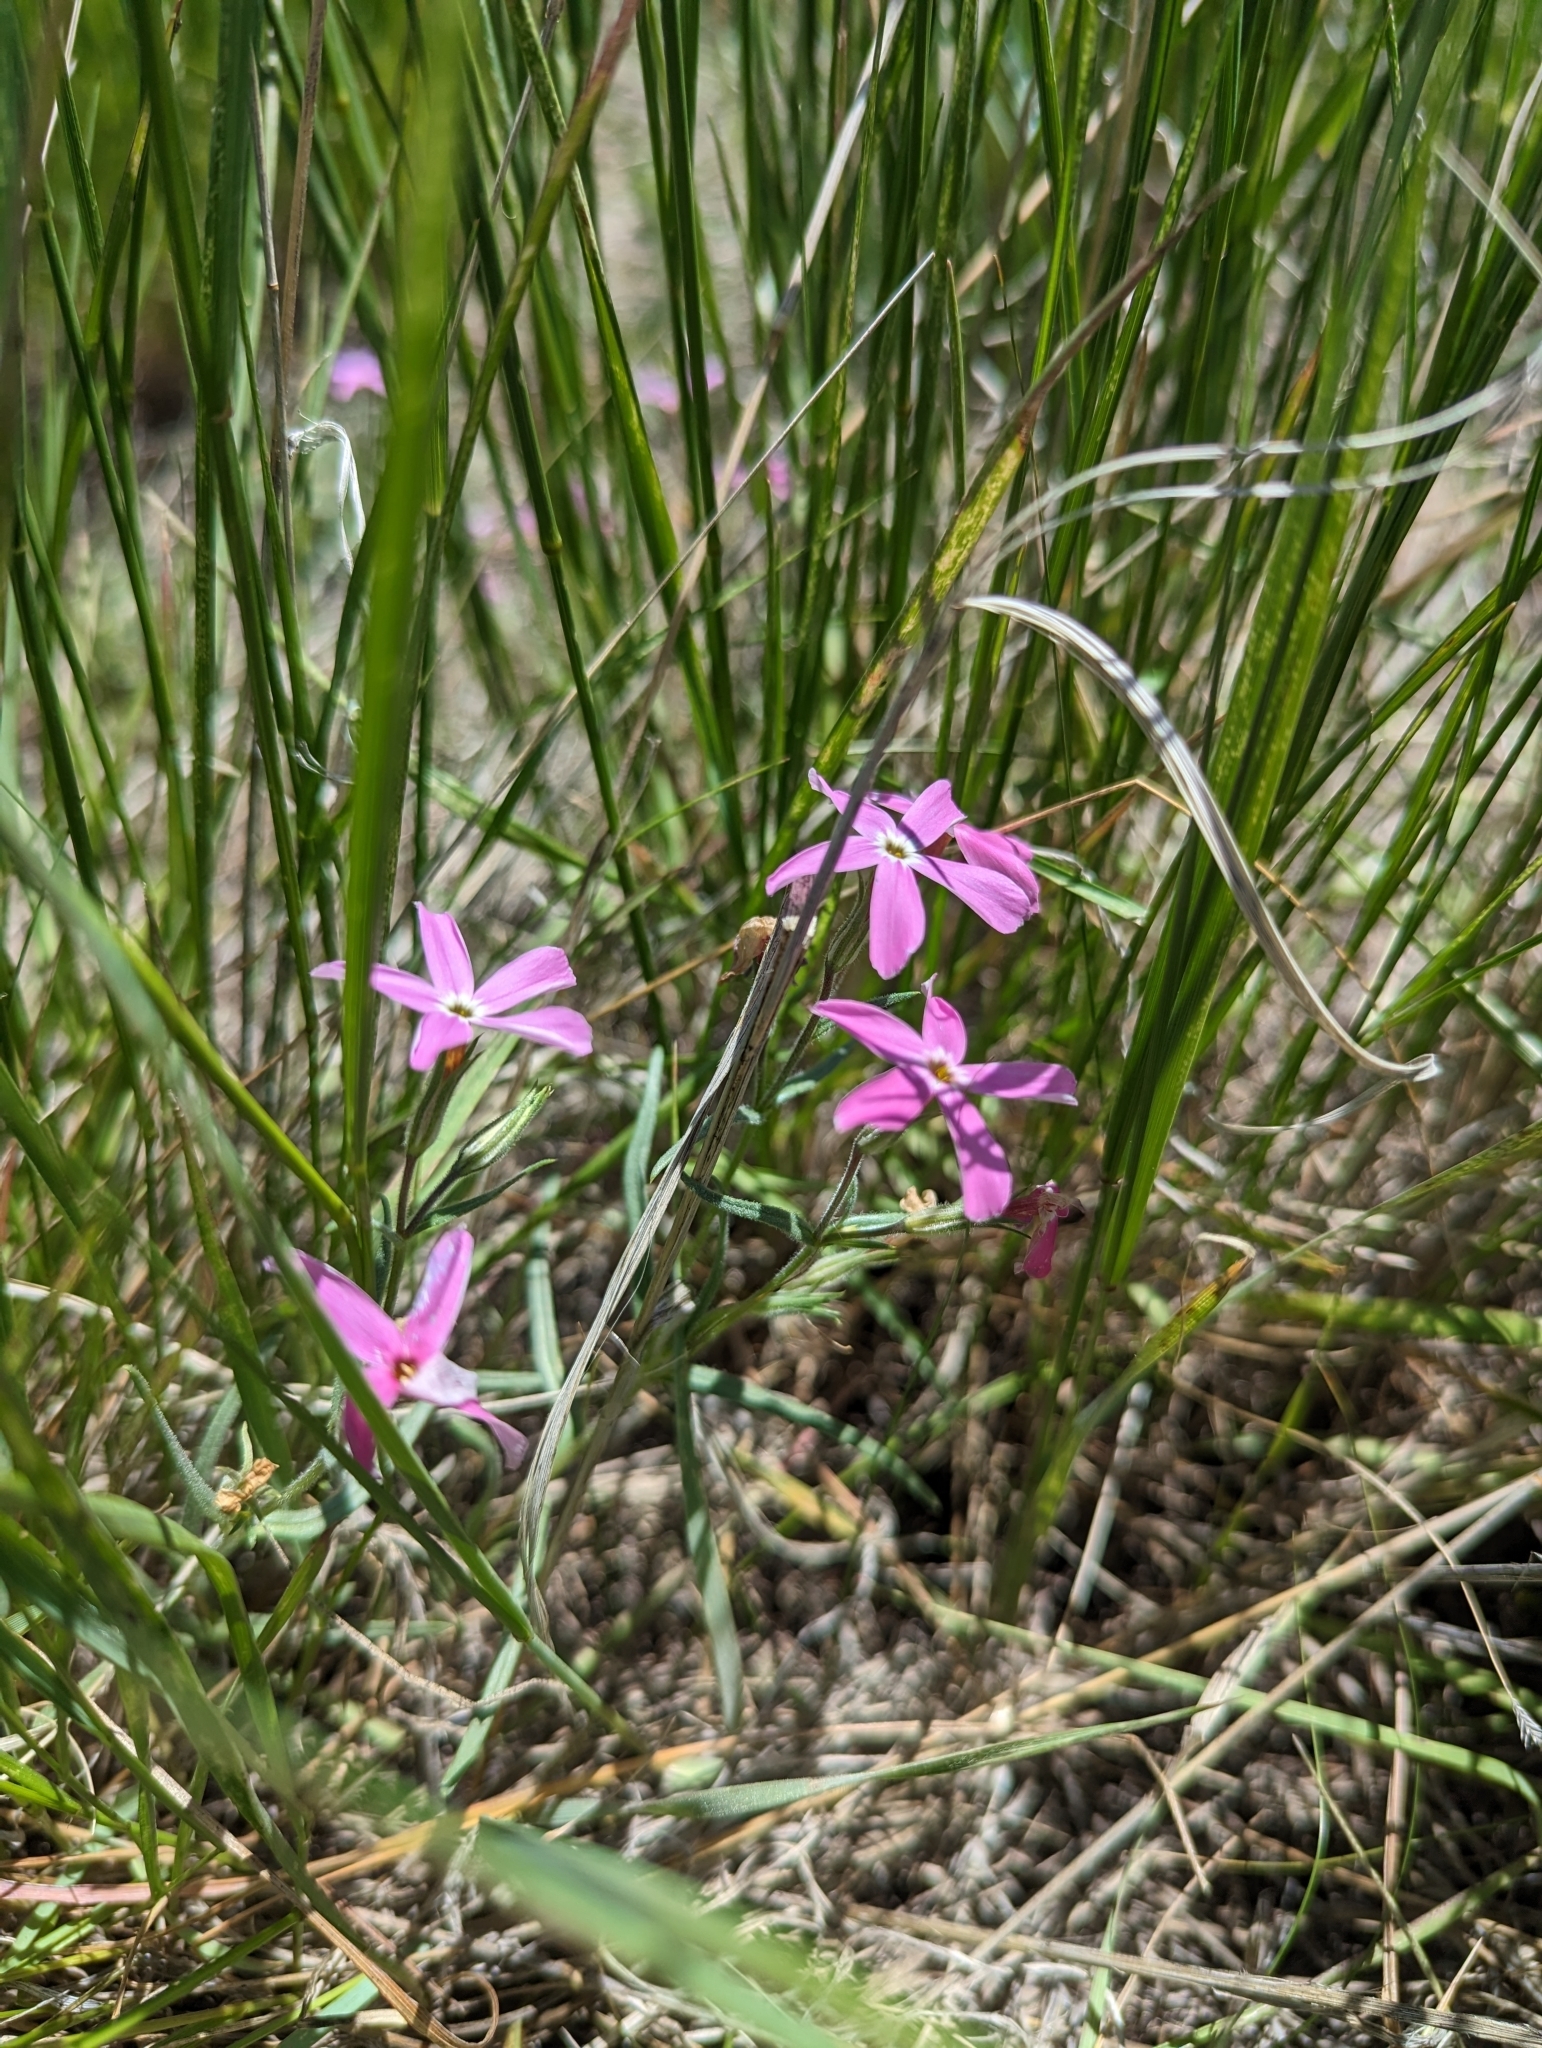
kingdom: Plantae
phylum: Tracheophyta
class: Magnoliopsida
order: Ericales
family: Polemoniaceae
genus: Phlox
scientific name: Phlox longifolia
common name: Longleaf phlox
